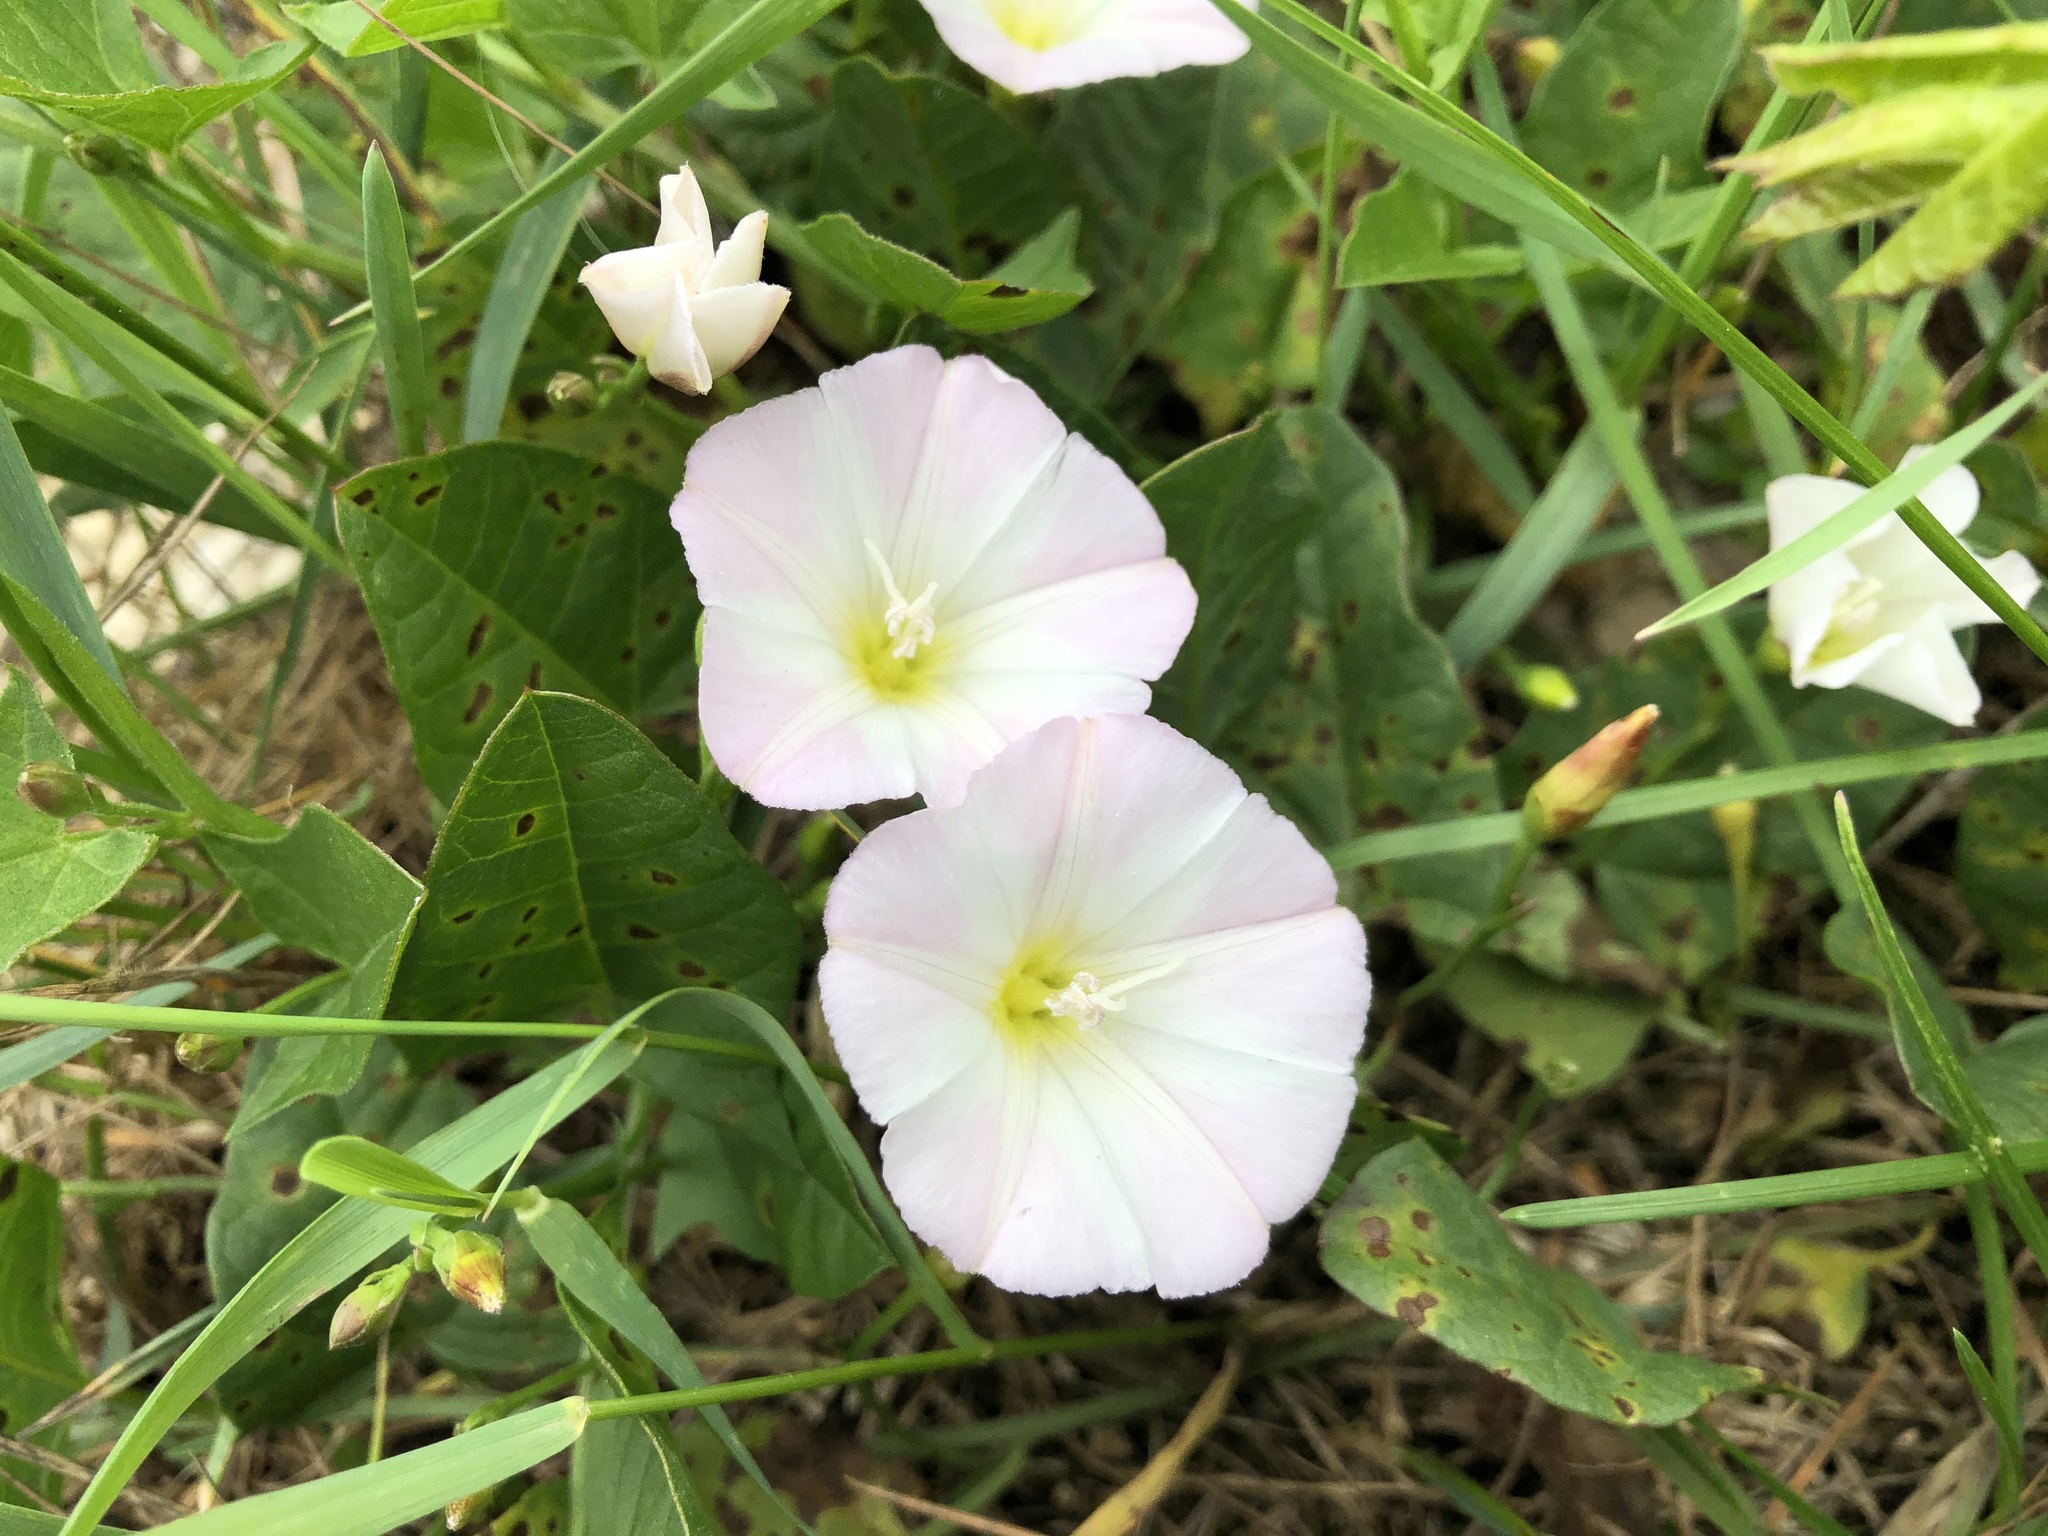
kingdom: Plantae
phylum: Tracheophyta
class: Magnoliopsida
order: Solanales
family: Convolvulaceae
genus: Convolvulus
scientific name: Convolvulus arvensis
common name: Field bindweed
